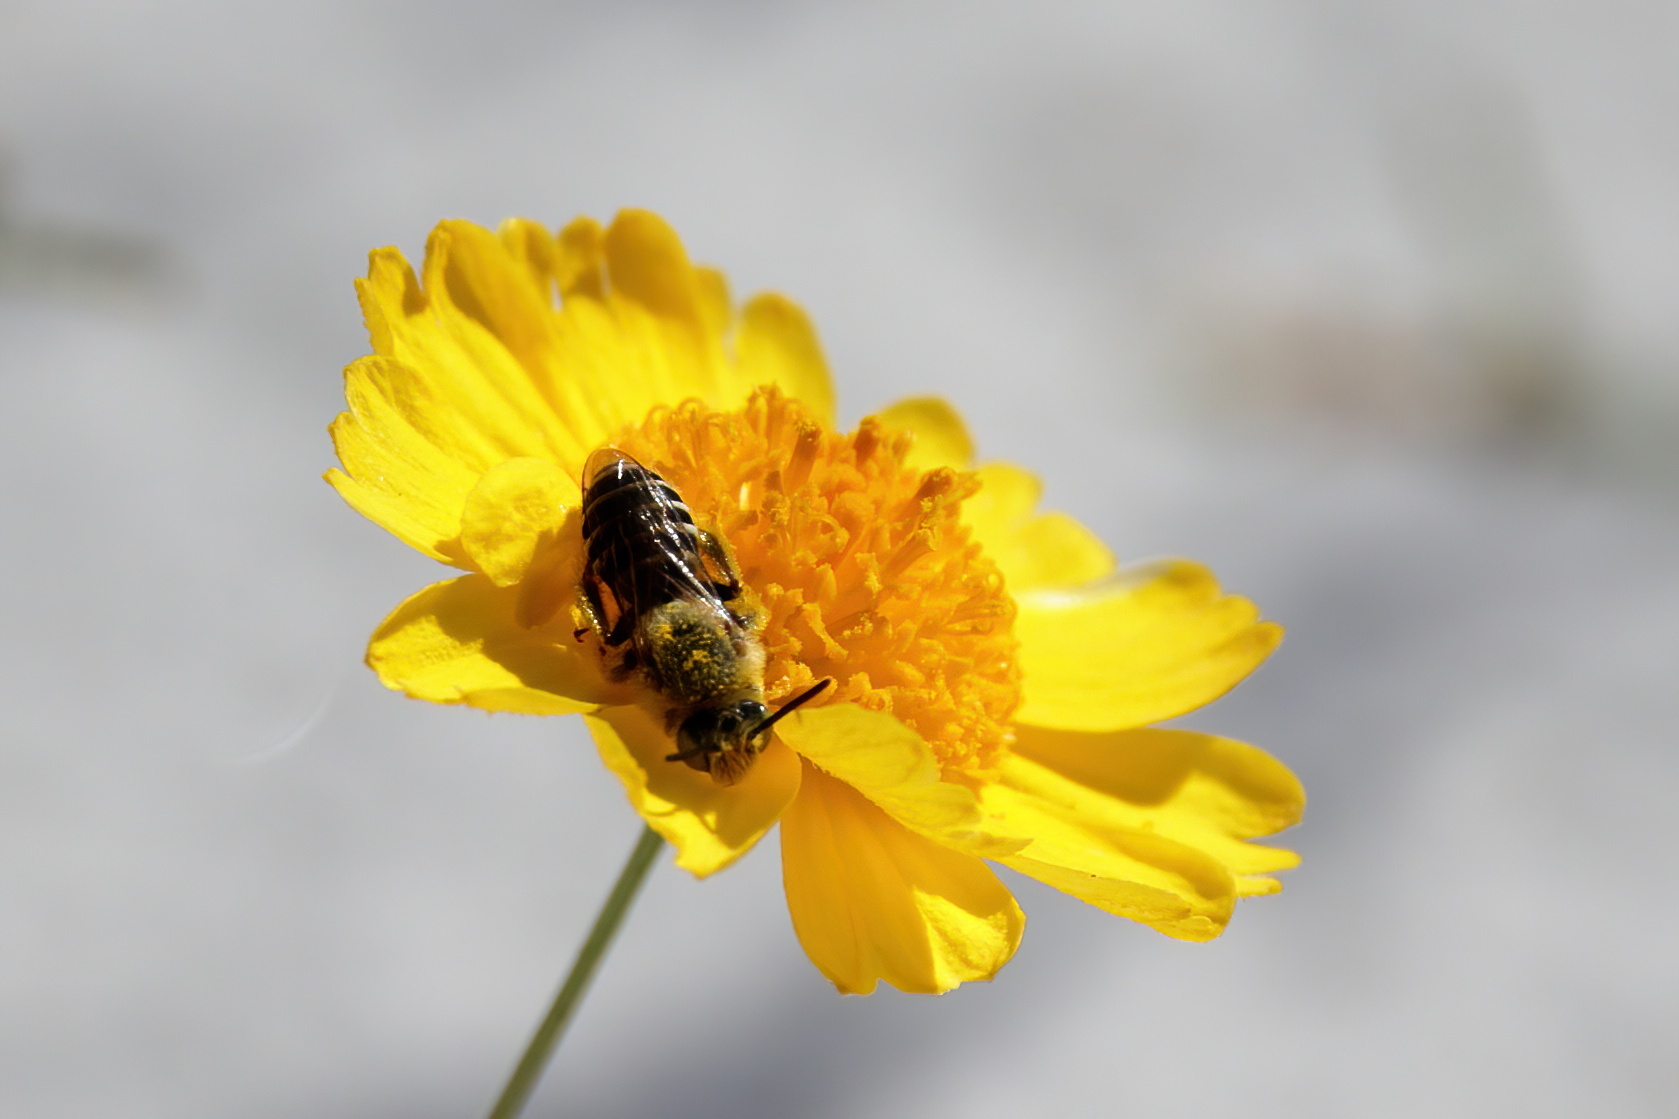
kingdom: Animalia
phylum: Arthropoda
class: Insecta
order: Hymenoptera
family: Melittidae
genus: Hesperapis
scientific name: Hesperapis oraria
